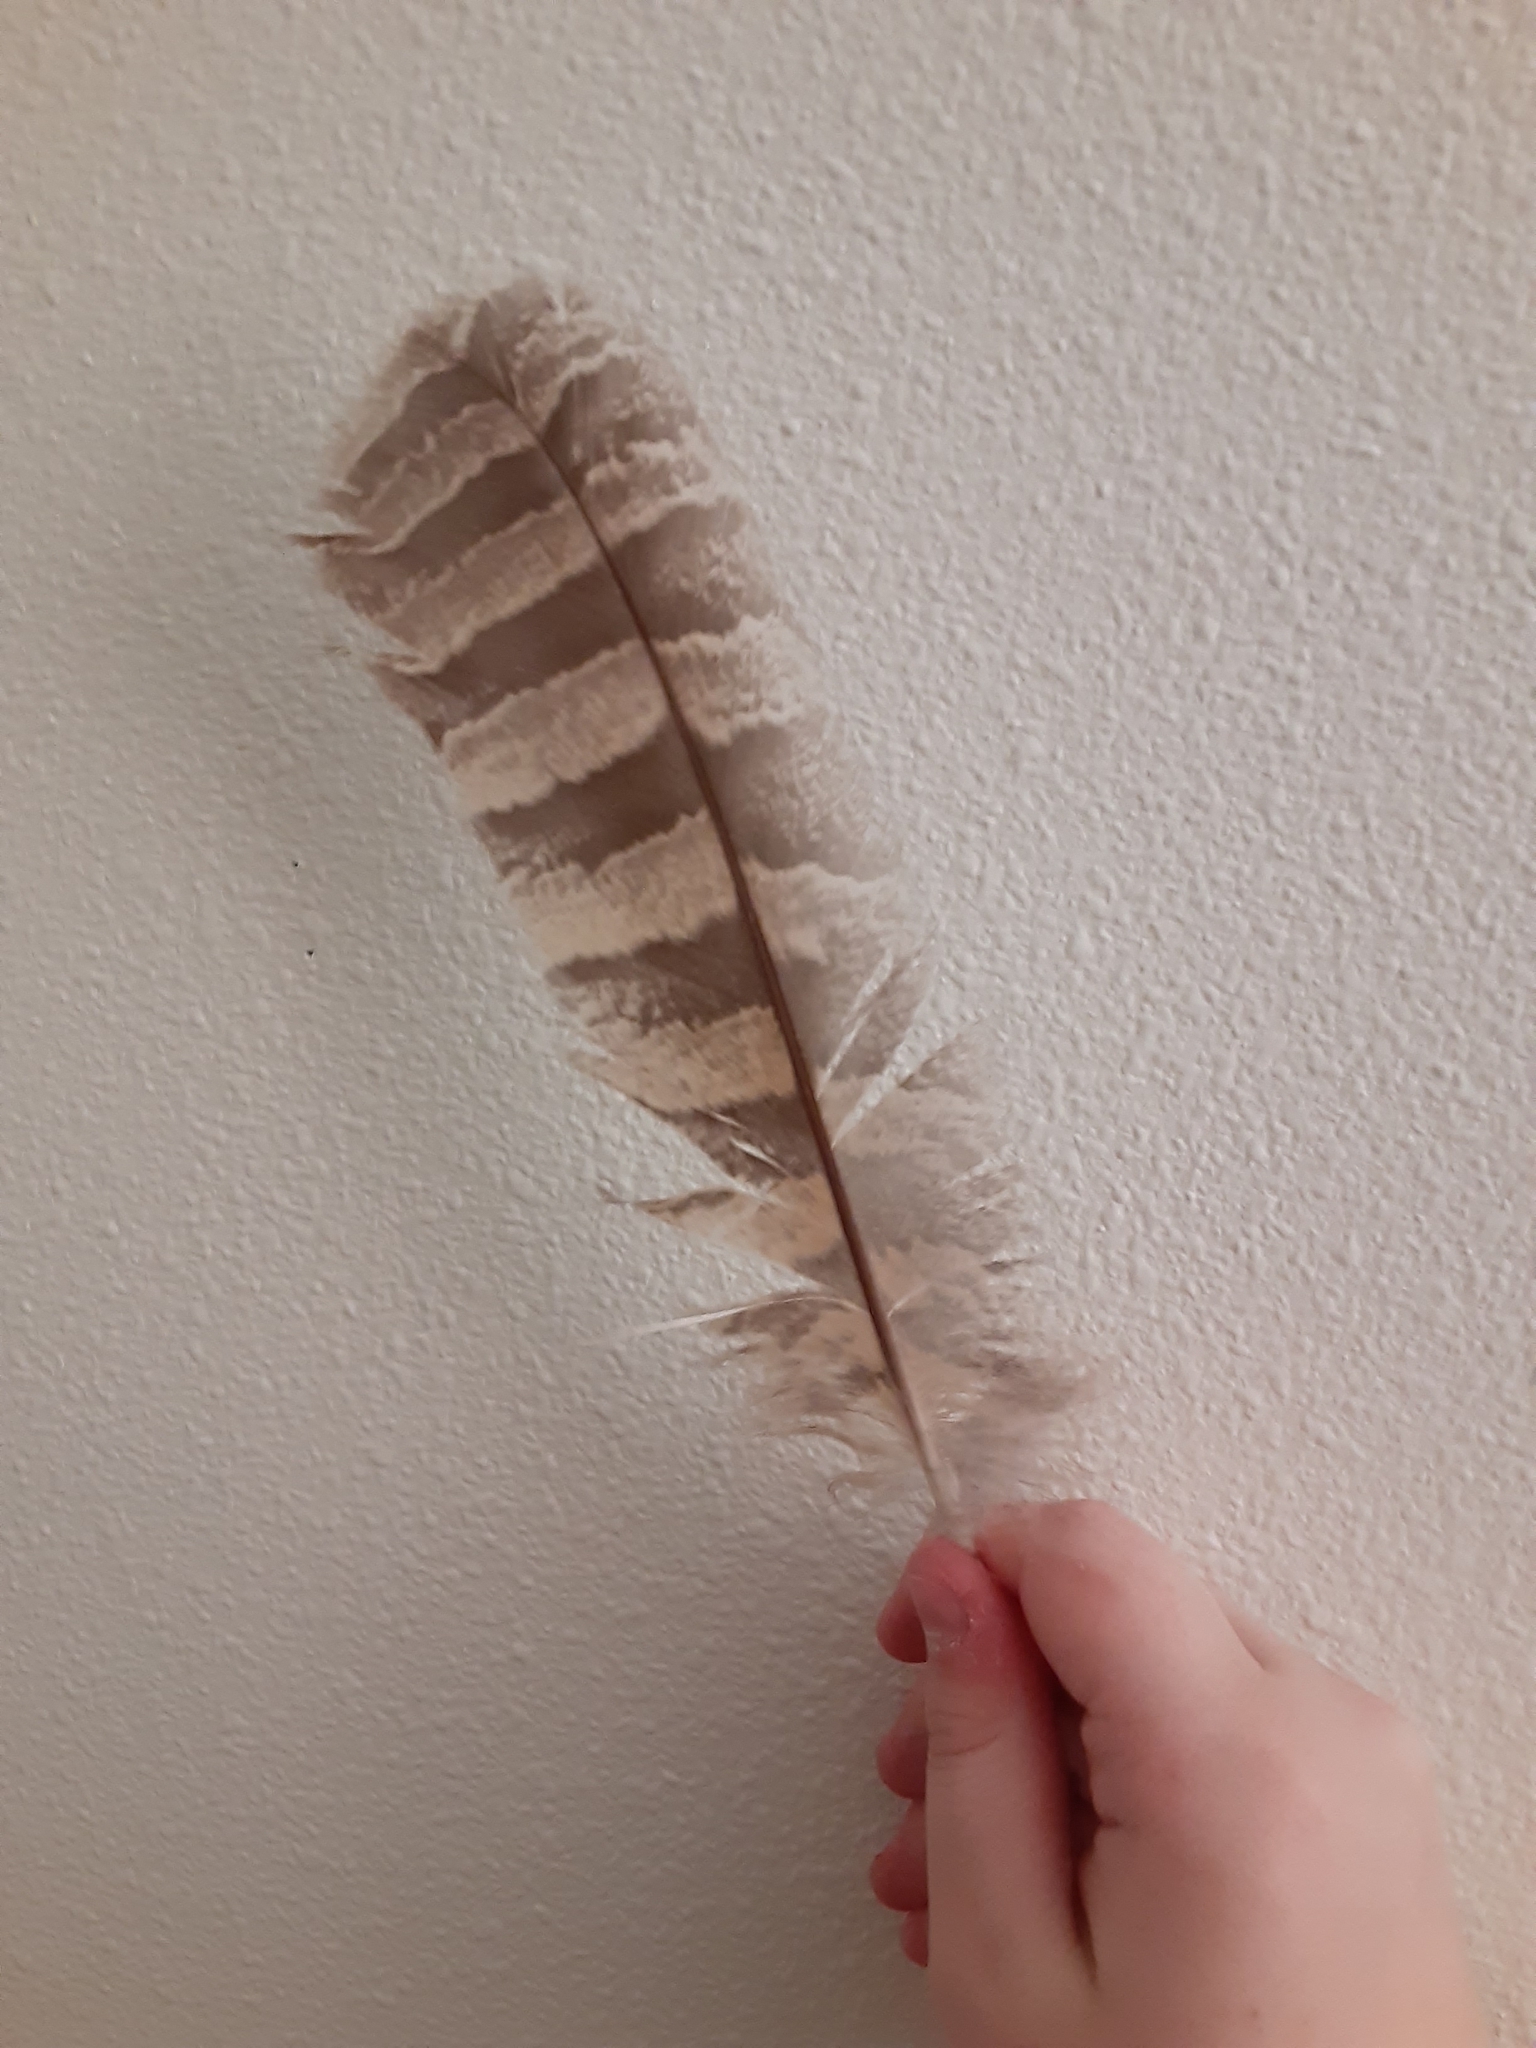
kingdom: Animalia
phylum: Chordata
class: Aves
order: Strigiformes
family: Strigidae
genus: Bubo
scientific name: Bubo virginianus
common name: Great horned owl
